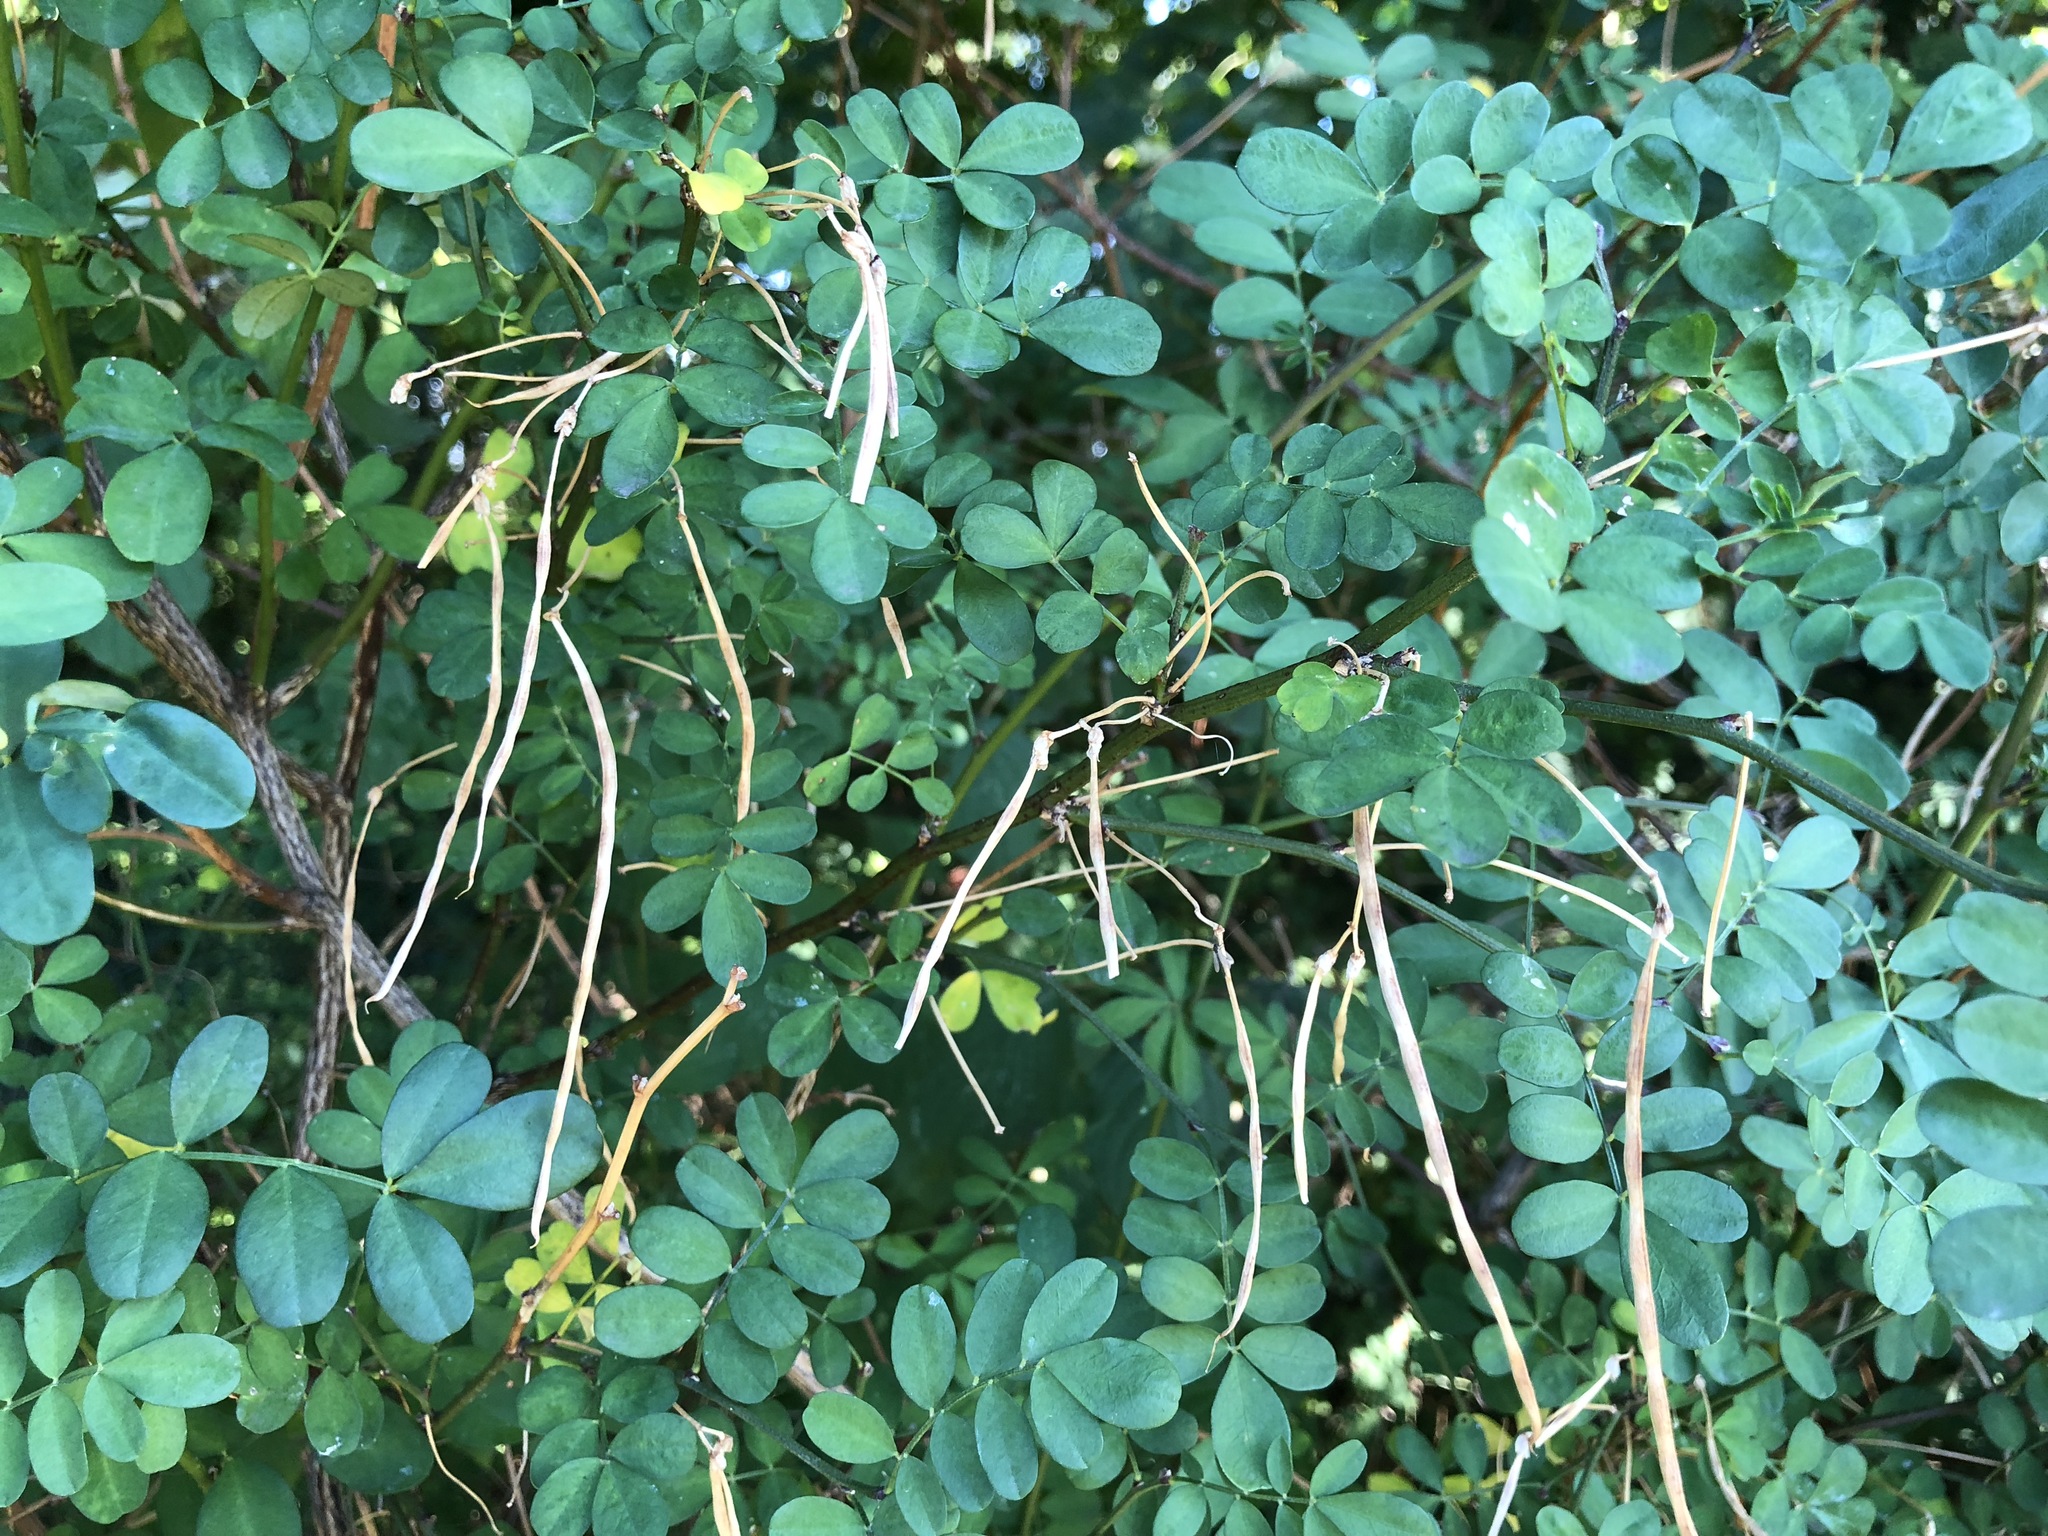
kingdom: Plantae
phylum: Tracheophyta
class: Magnoliopsida
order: Fabales
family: Fabaceae
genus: Hippocrepis
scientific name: Hippocrepis emerus
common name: Scorpion senna
